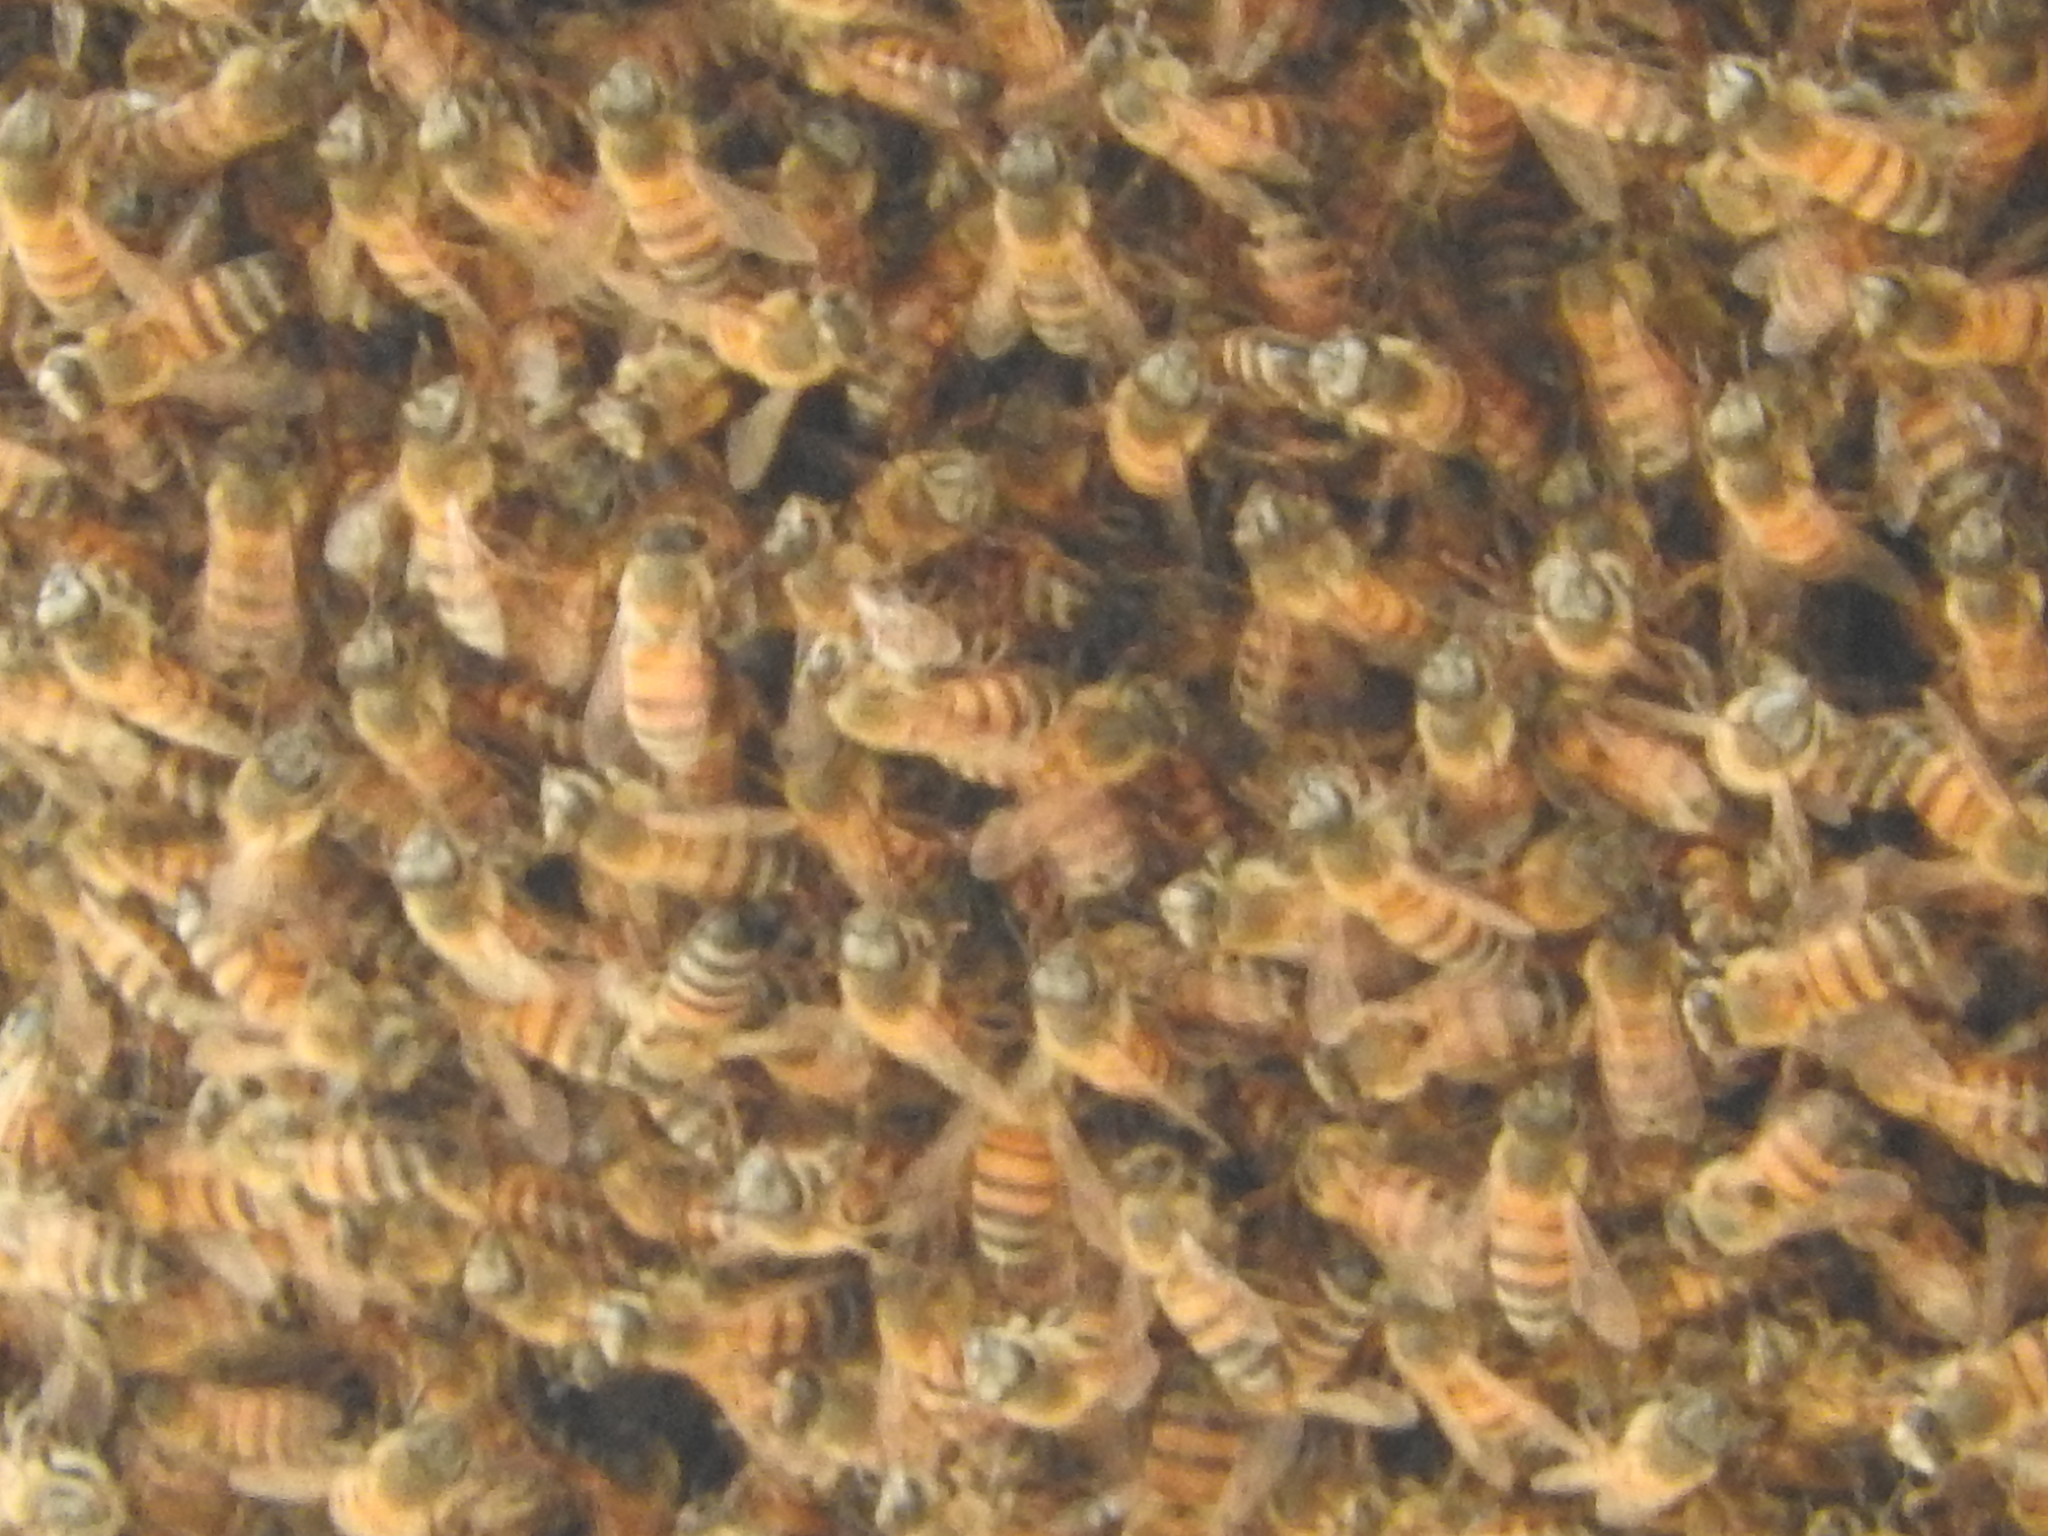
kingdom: Animalia
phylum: Arthropoda
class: Insecta
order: Hymenoptera
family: Apidae
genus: Apis
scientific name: Apis mellifera
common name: Honey bee
